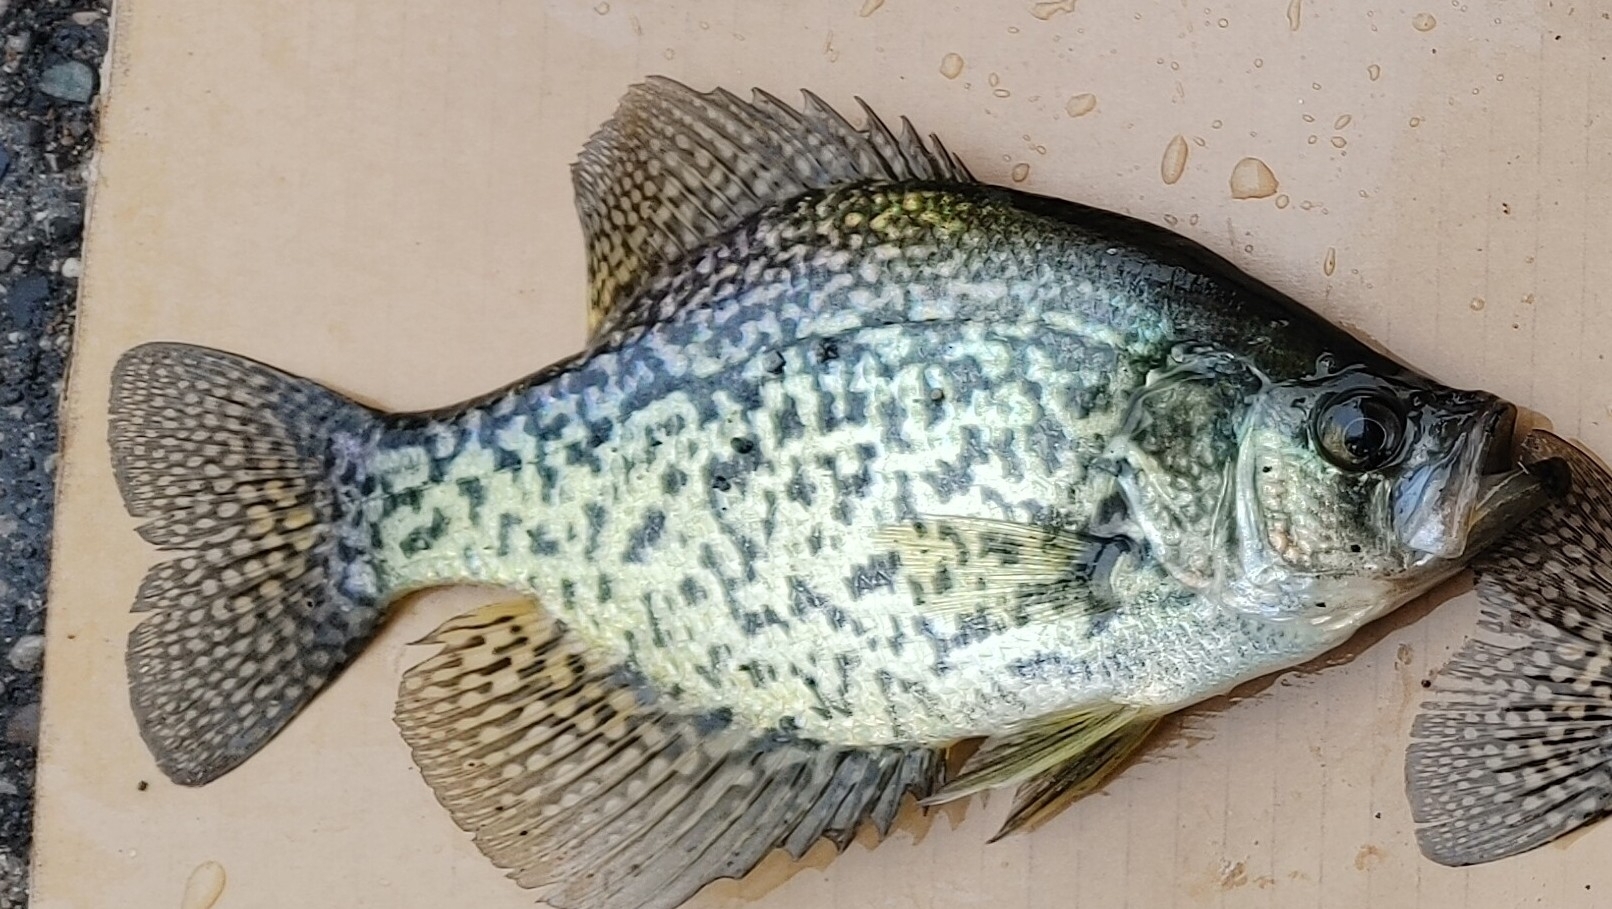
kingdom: Animalia
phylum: Chordata
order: Perciformes
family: Centrarchidae
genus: Pomoxis
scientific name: Pomoxis nigromaculatus
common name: Black crappie
